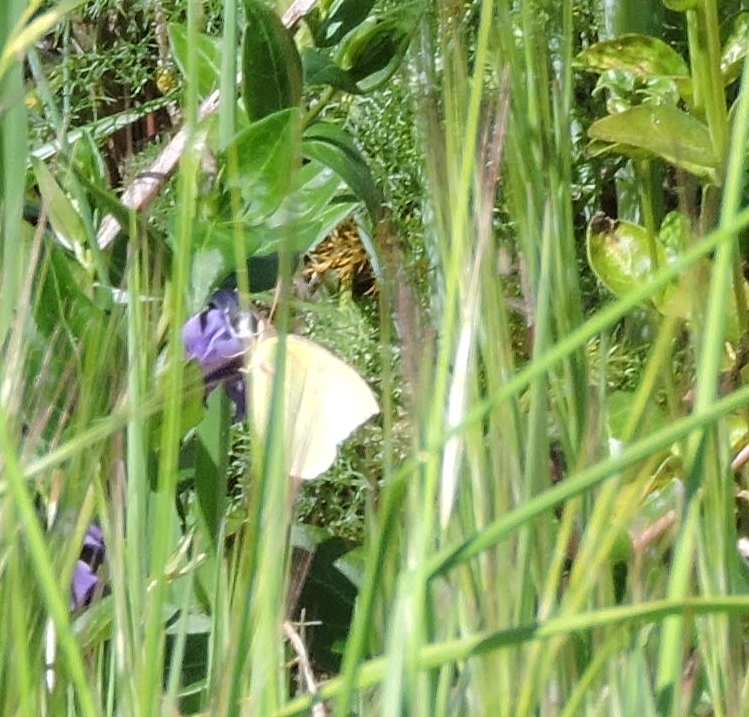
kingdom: Animalia
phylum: Arthropoda
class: Insecta
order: Lepidoptera
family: Pieridae
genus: Zerene
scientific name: Zerene eurydice
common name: California dogface
